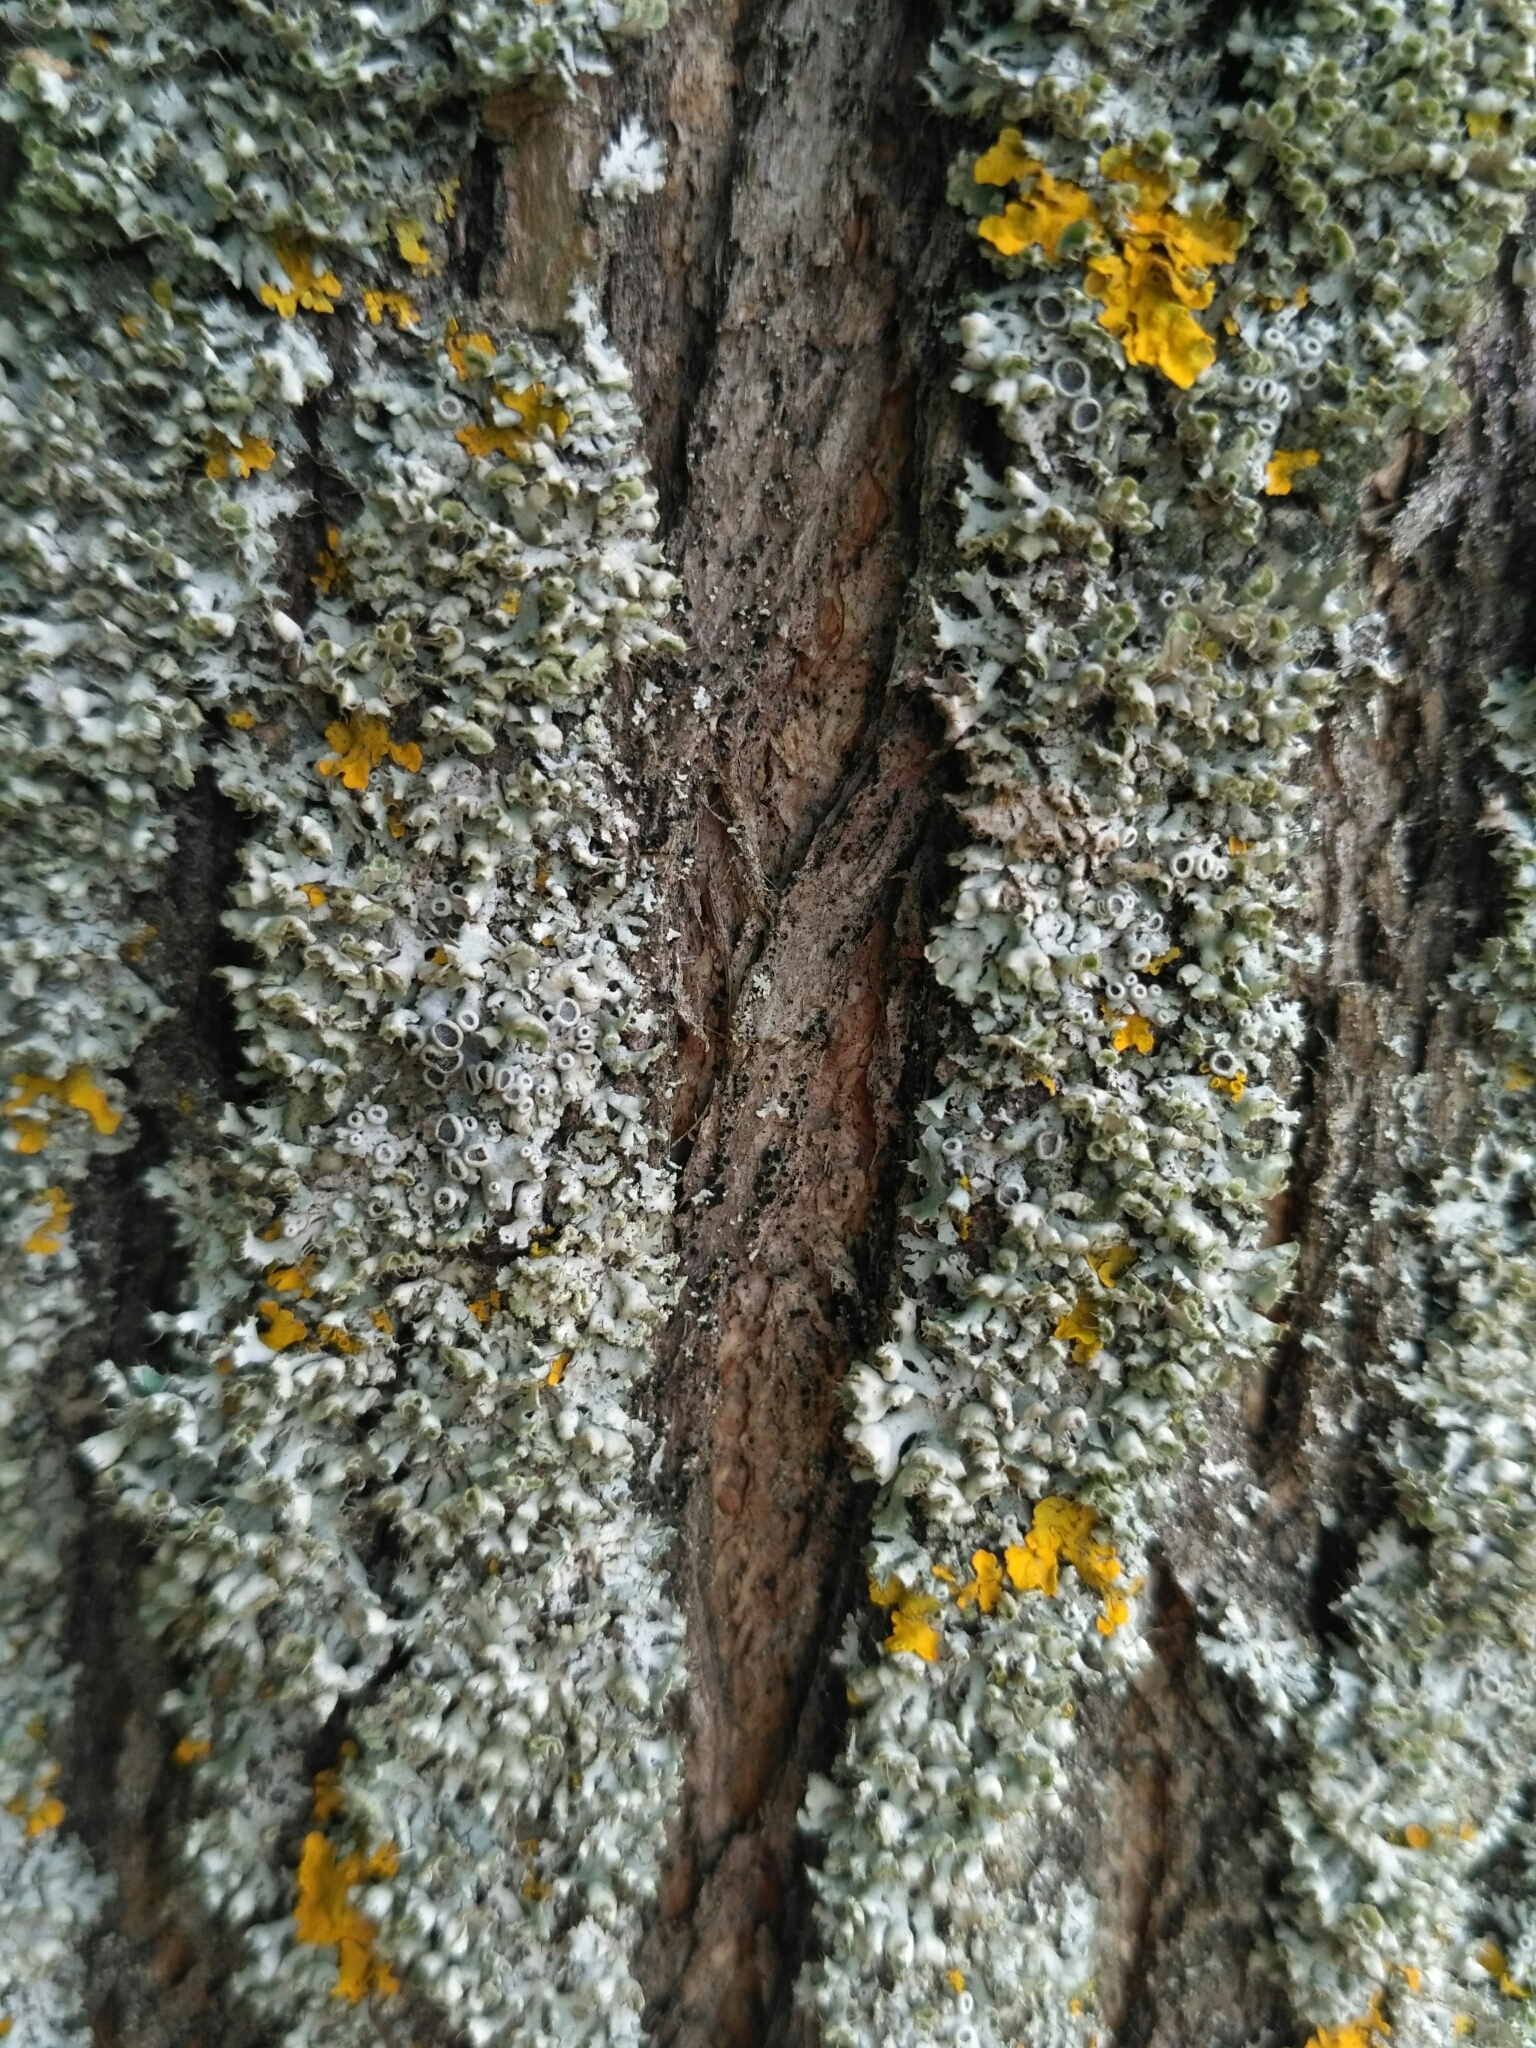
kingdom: Fungi
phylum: Ascomycota
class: Lecanoromycetes
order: Caliciales
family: Physciaceae
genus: Physcia
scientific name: Physcia adscendens
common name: Hooded rosette lichen
